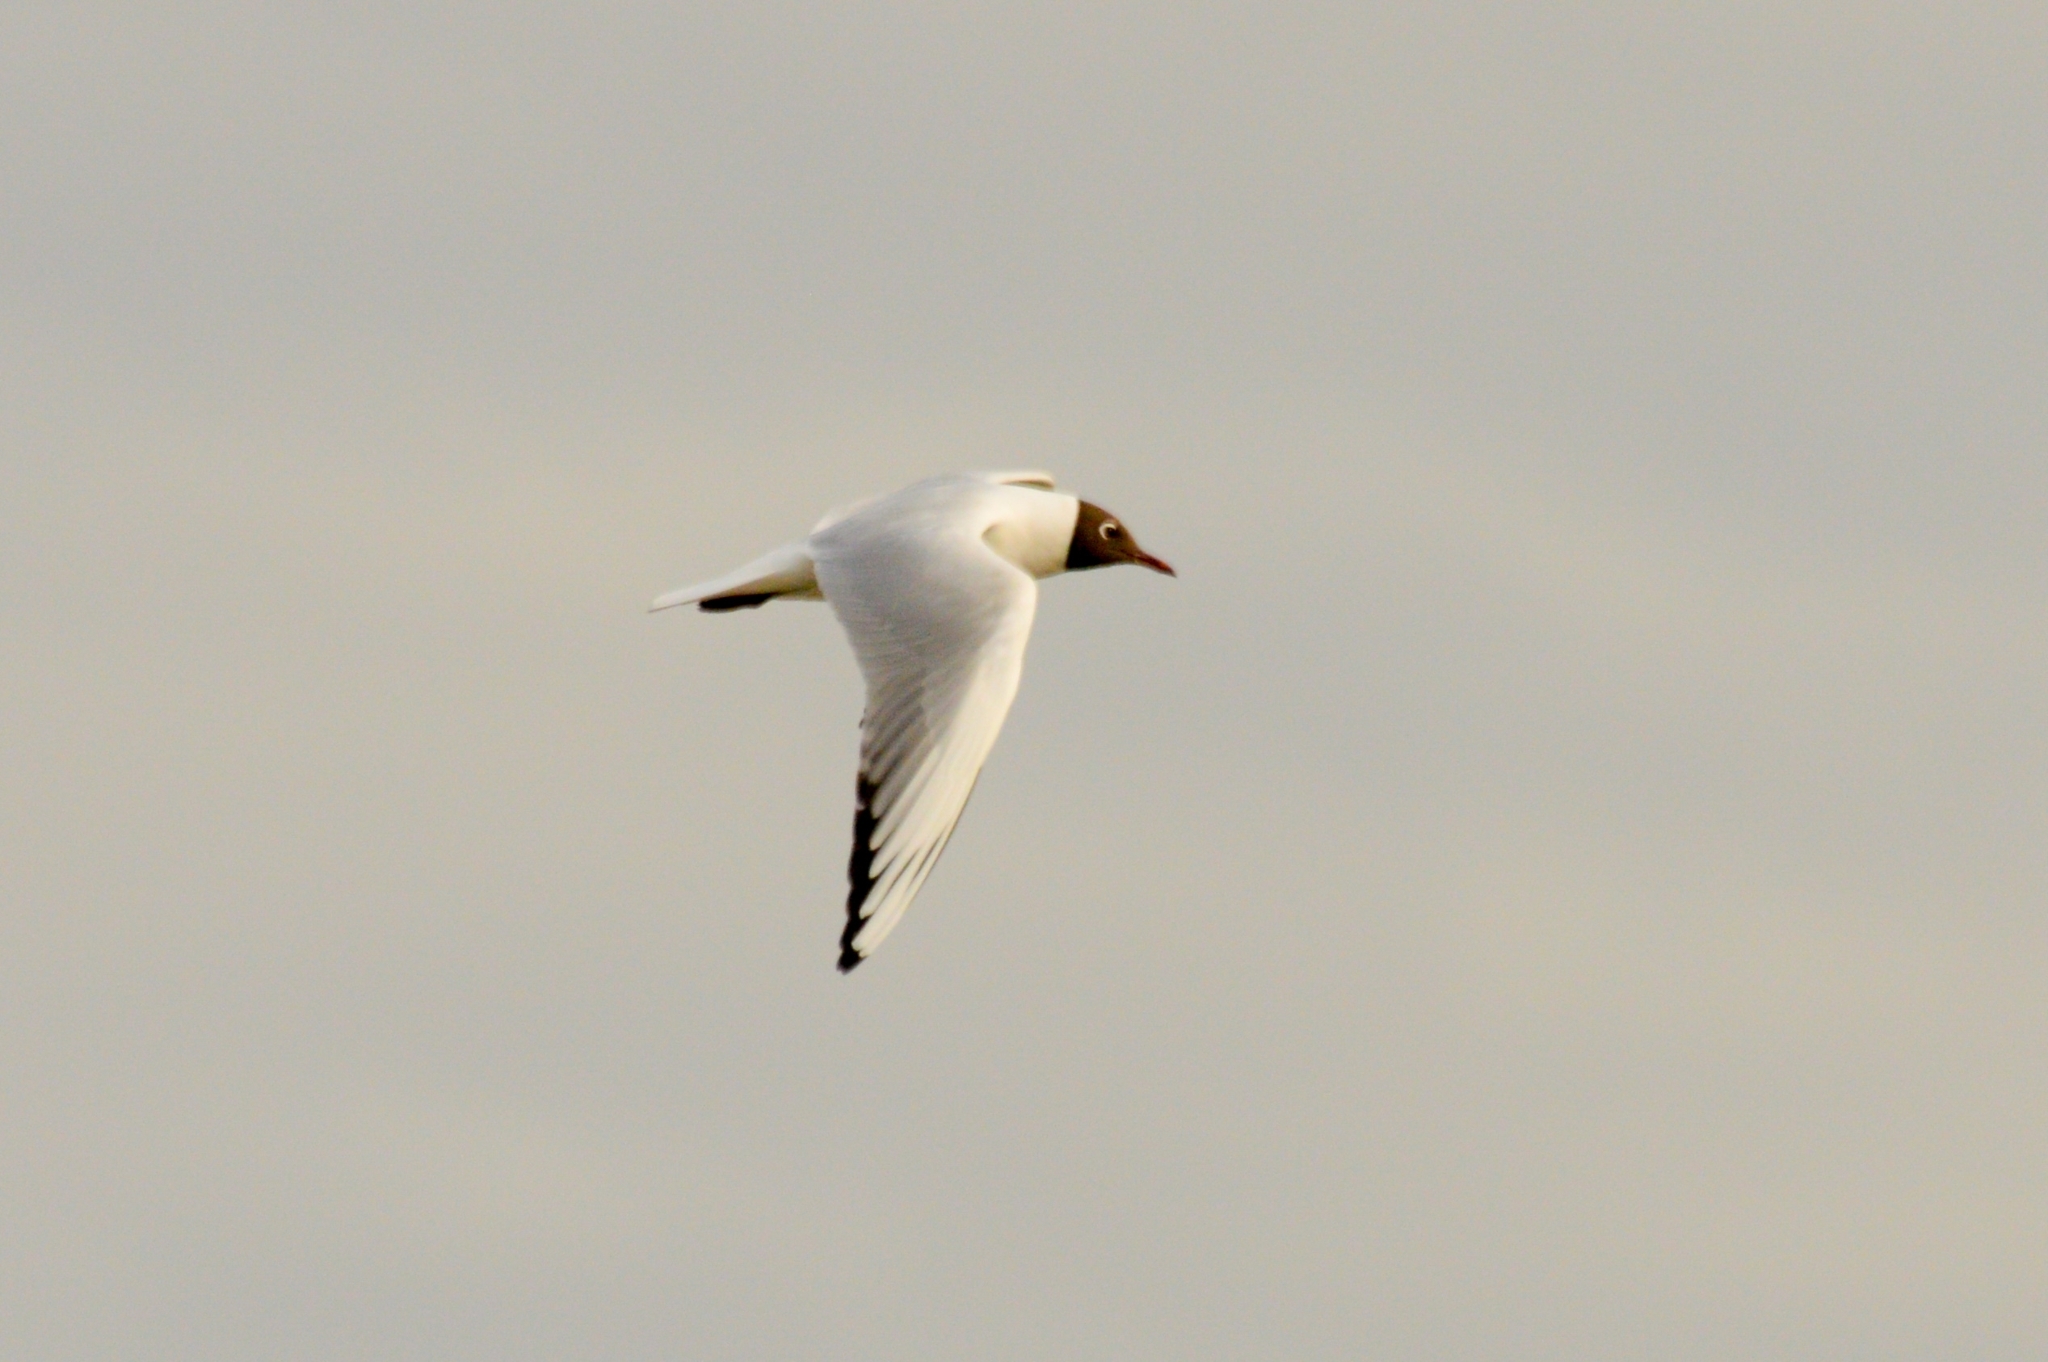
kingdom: Animalia
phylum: Chordata
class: Aves
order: Charadriiformes
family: Laridae
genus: Chroicocephalus
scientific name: Chroicocephalus ridibundus
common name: Black-headed gull
